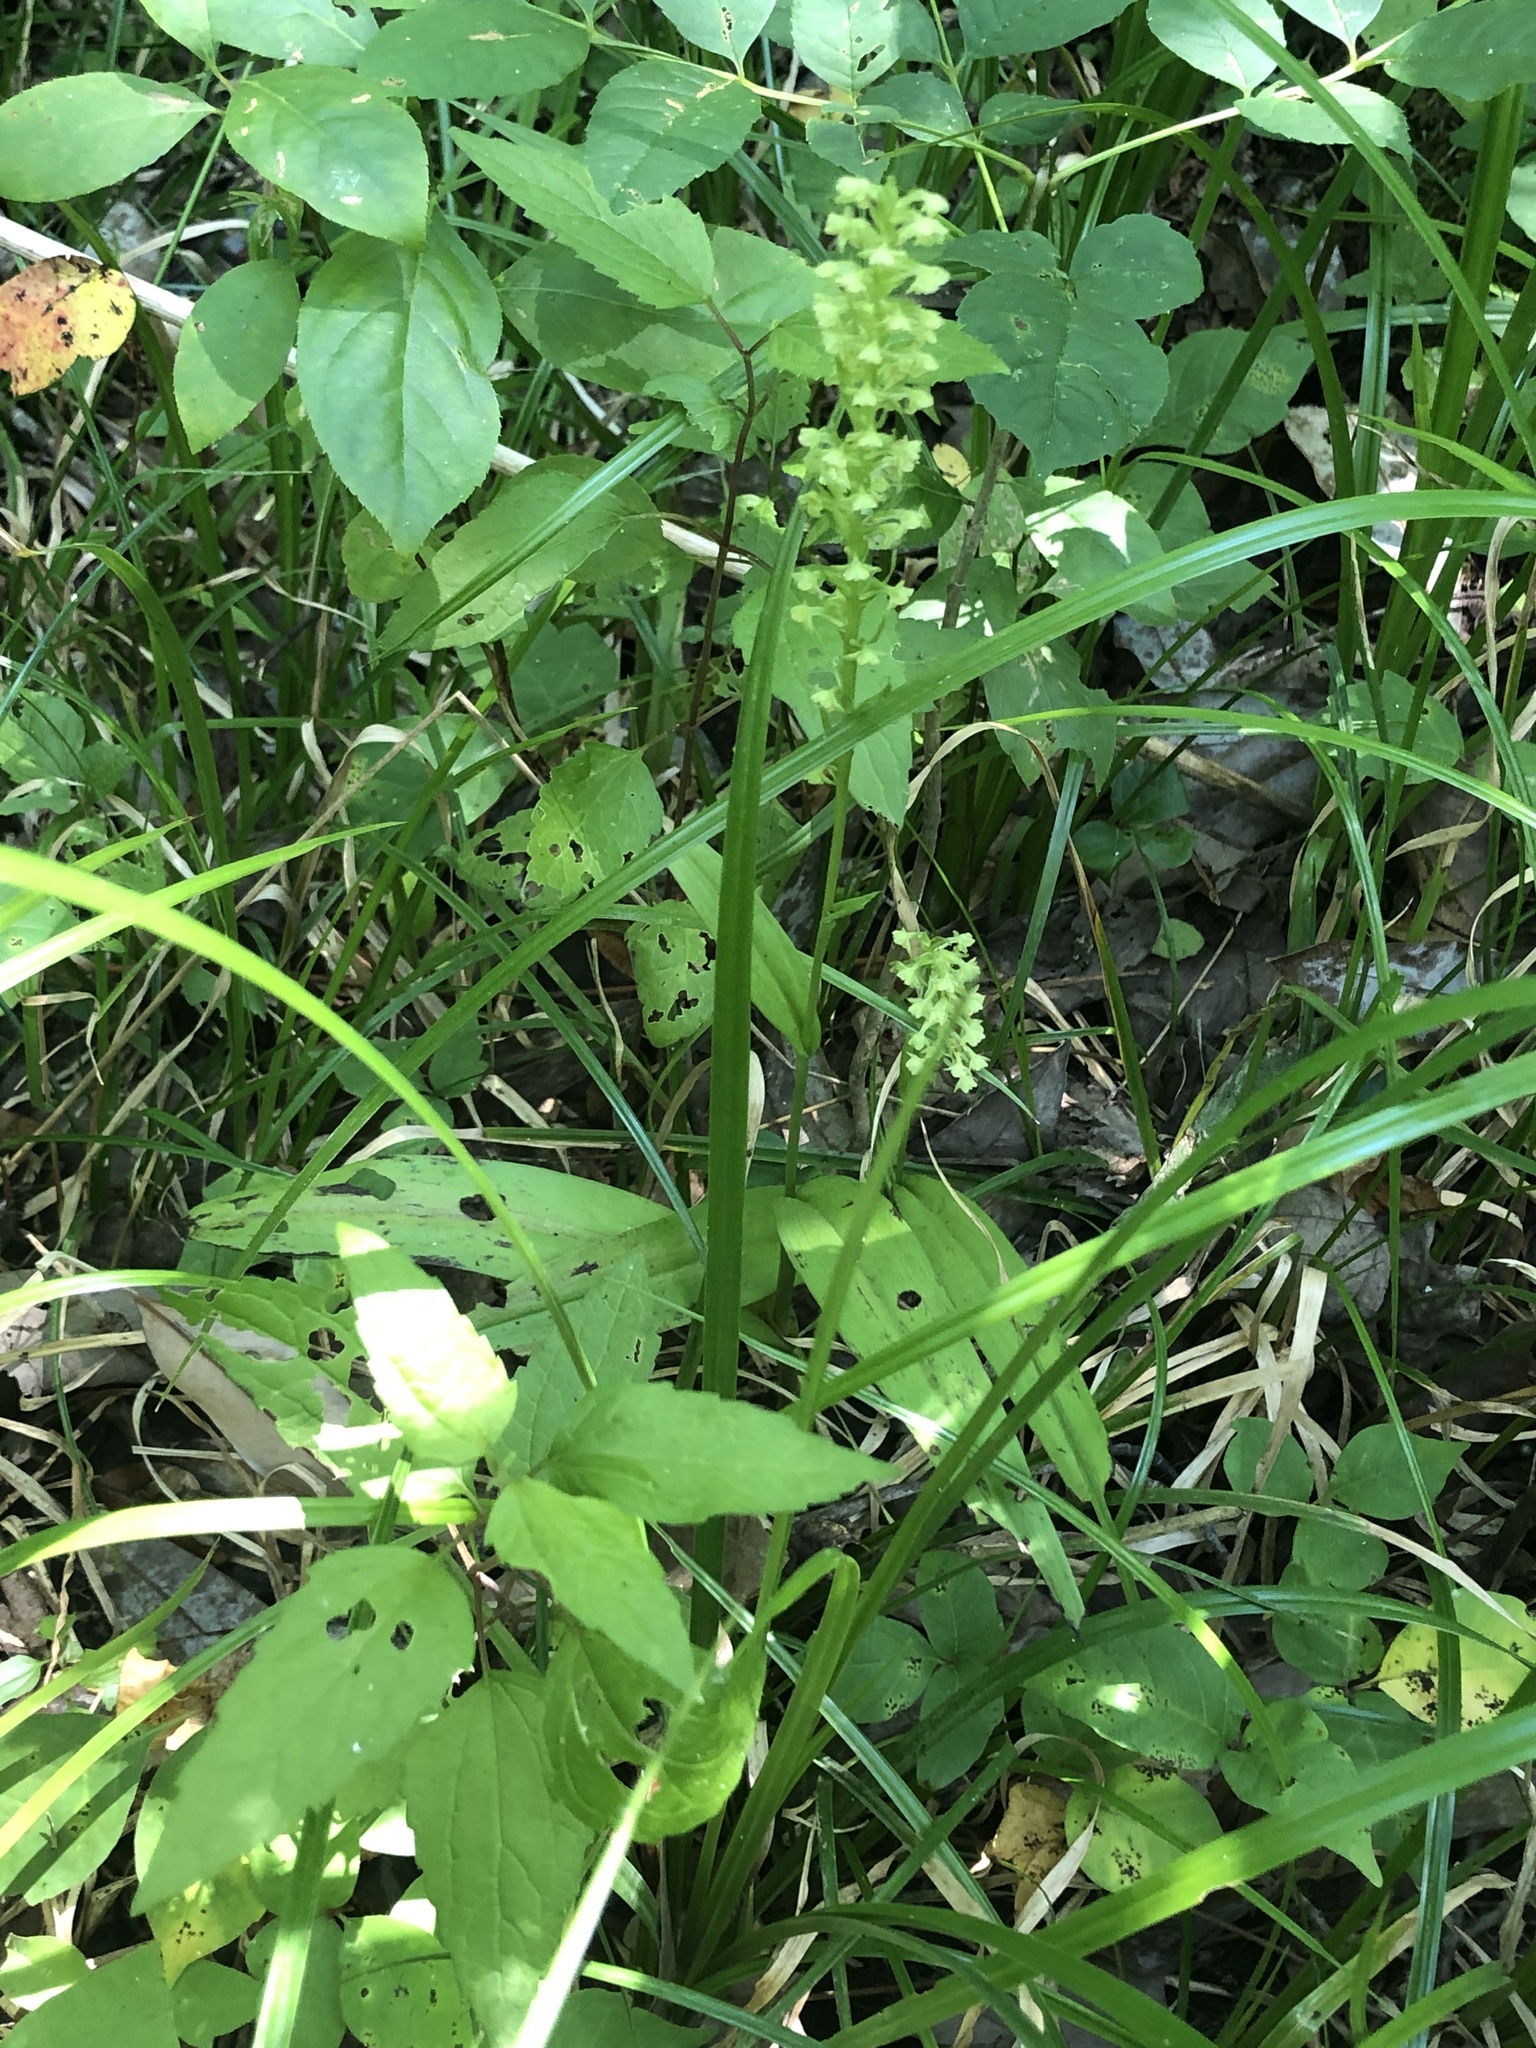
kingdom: Plantae
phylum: Tracheophyta
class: Liliopsida
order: Asparagales
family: Orchidaceae
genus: Platanthera
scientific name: Platanthera flava
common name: Gypsy-spikes
